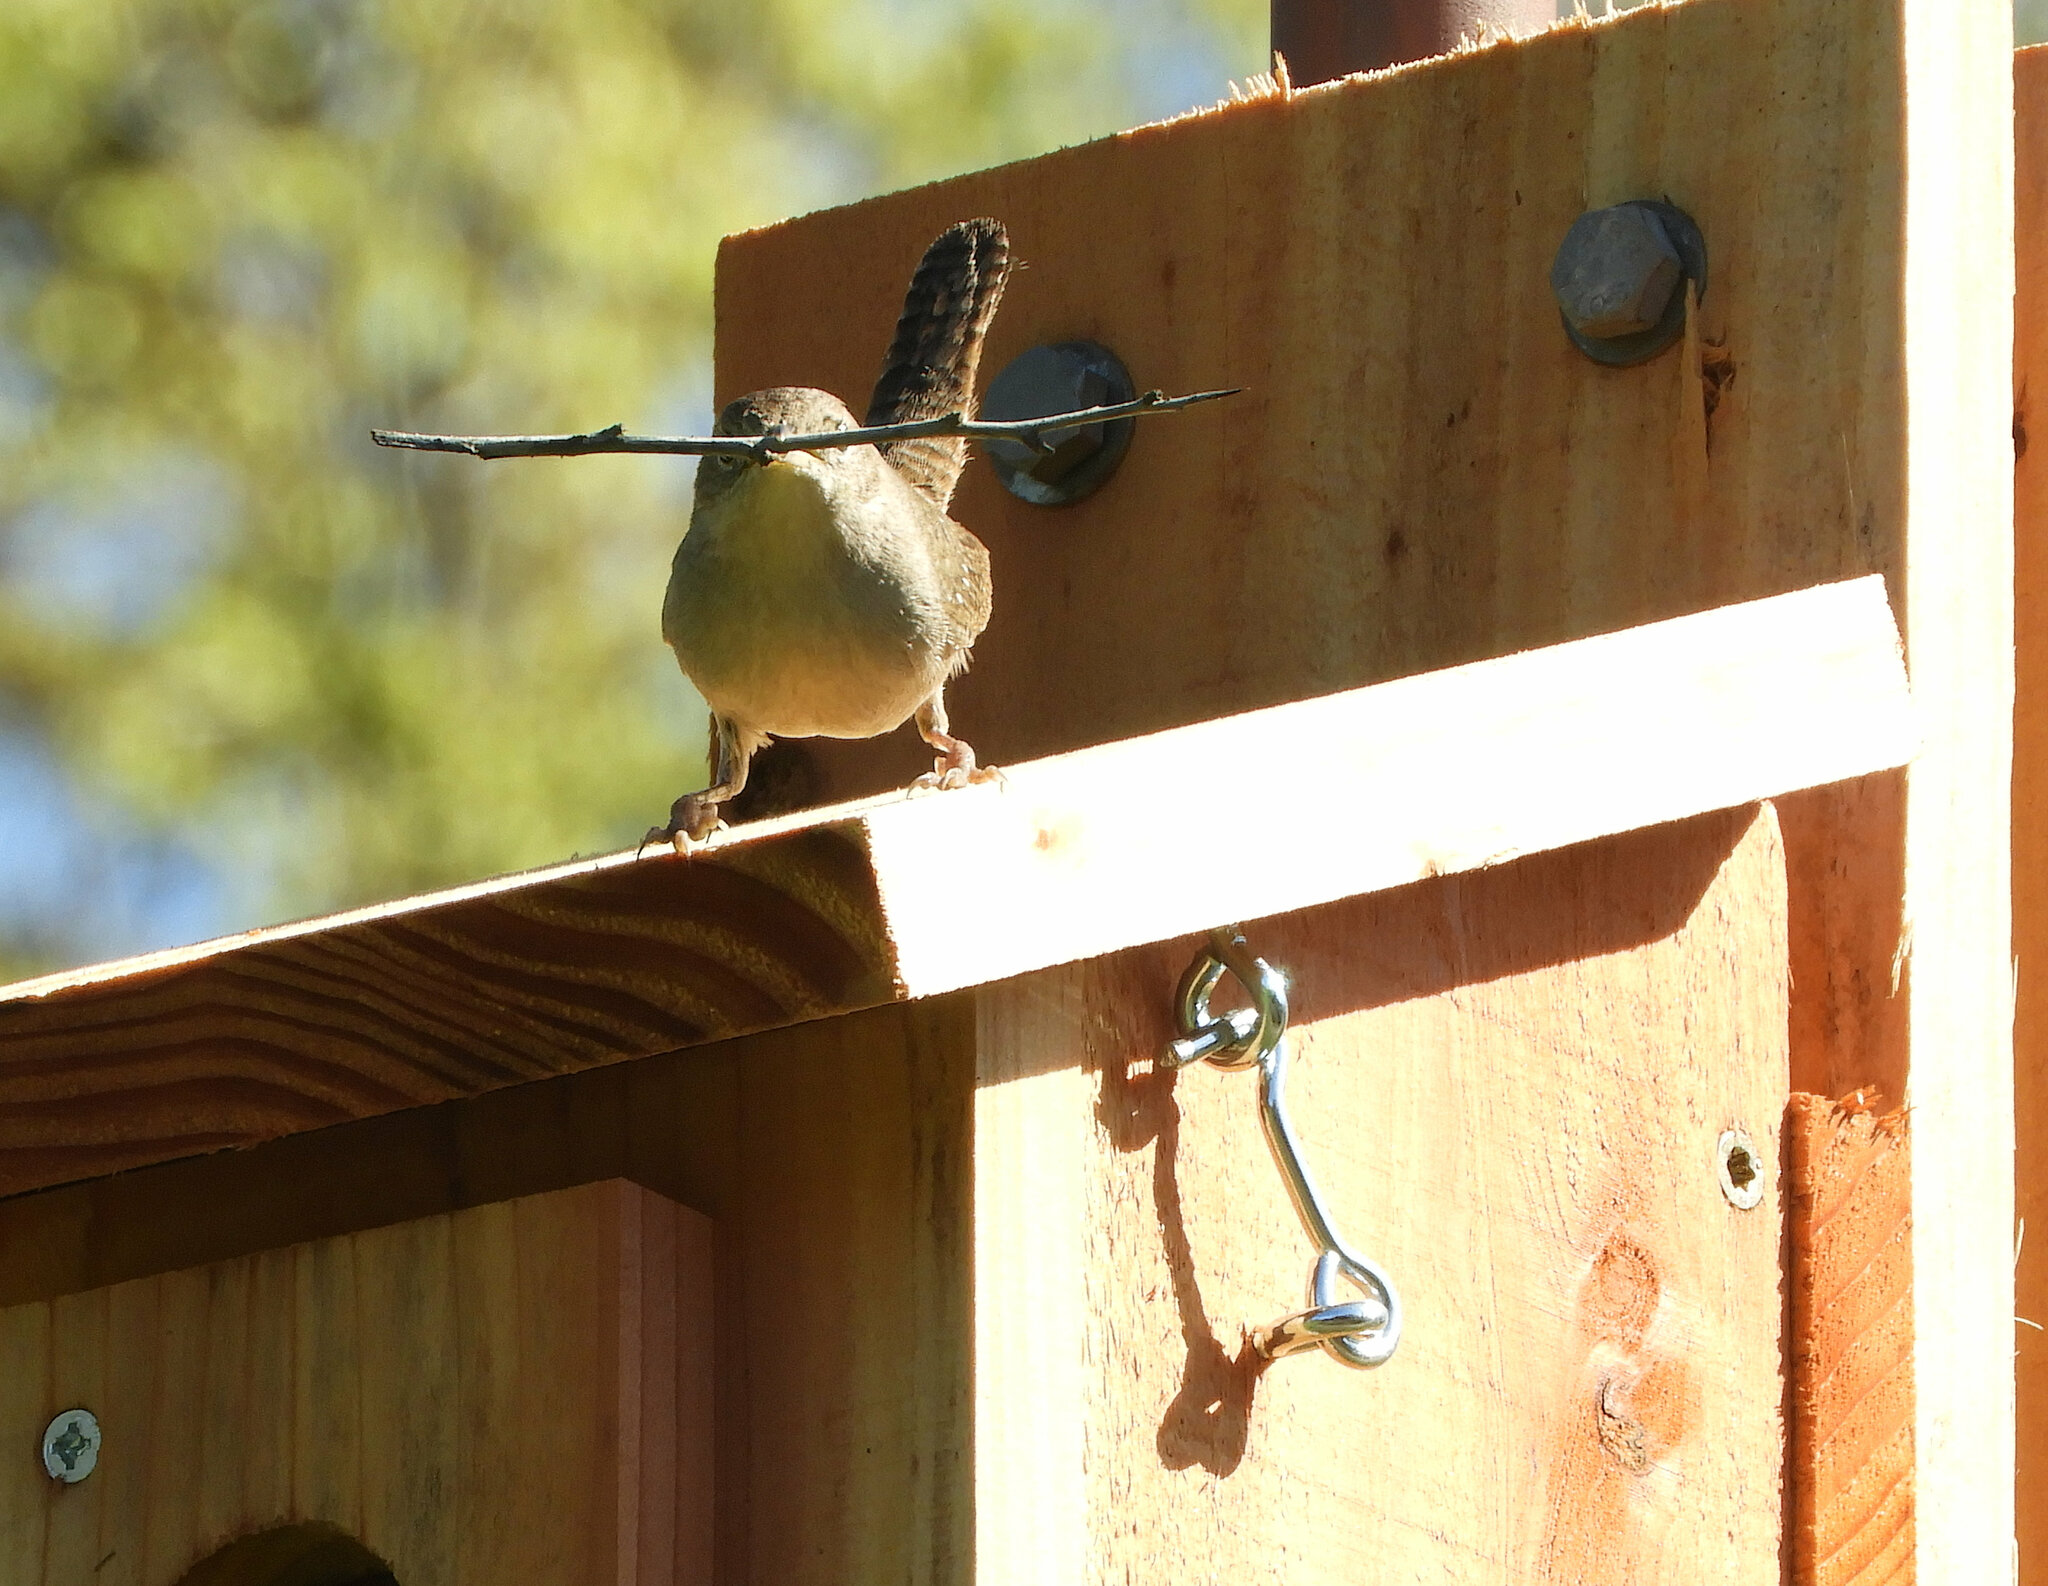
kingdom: Animalia
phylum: Chordata
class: Aves
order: Passeriformes
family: Troglodytidae
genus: Troglodytes
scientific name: Troglodytes aedon
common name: House wren
